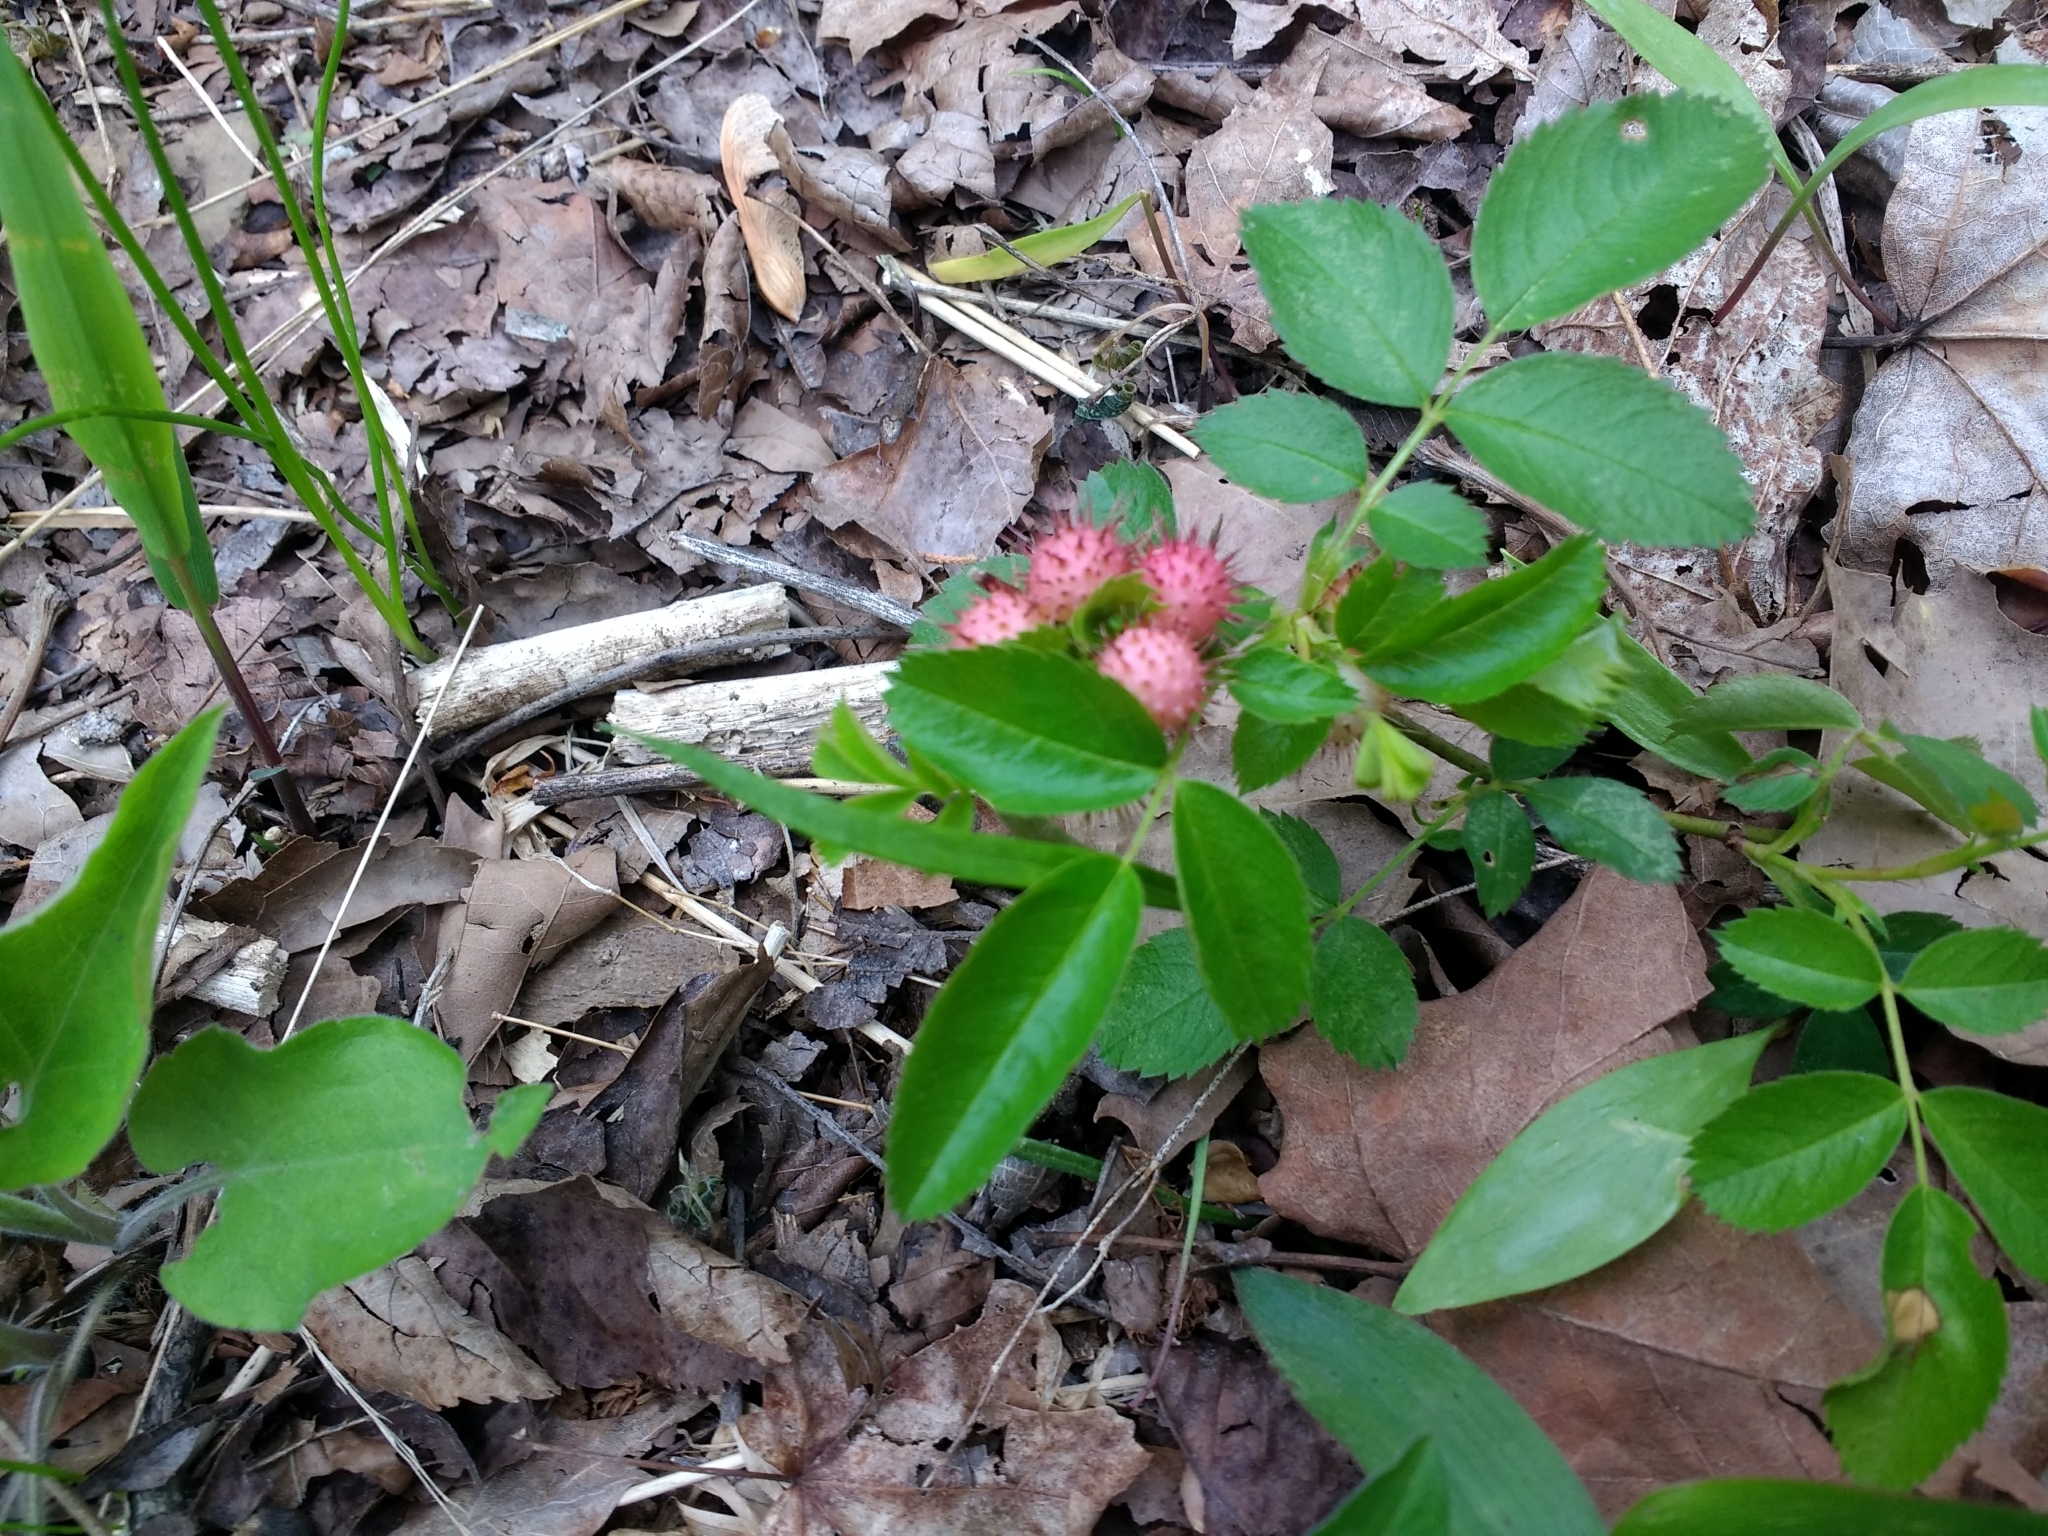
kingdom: Animalia
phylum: Arthropoda
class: Insecta
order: Hymenoptera
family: Cynipidae
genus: Diplolepis
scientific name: Diplolepis polita
